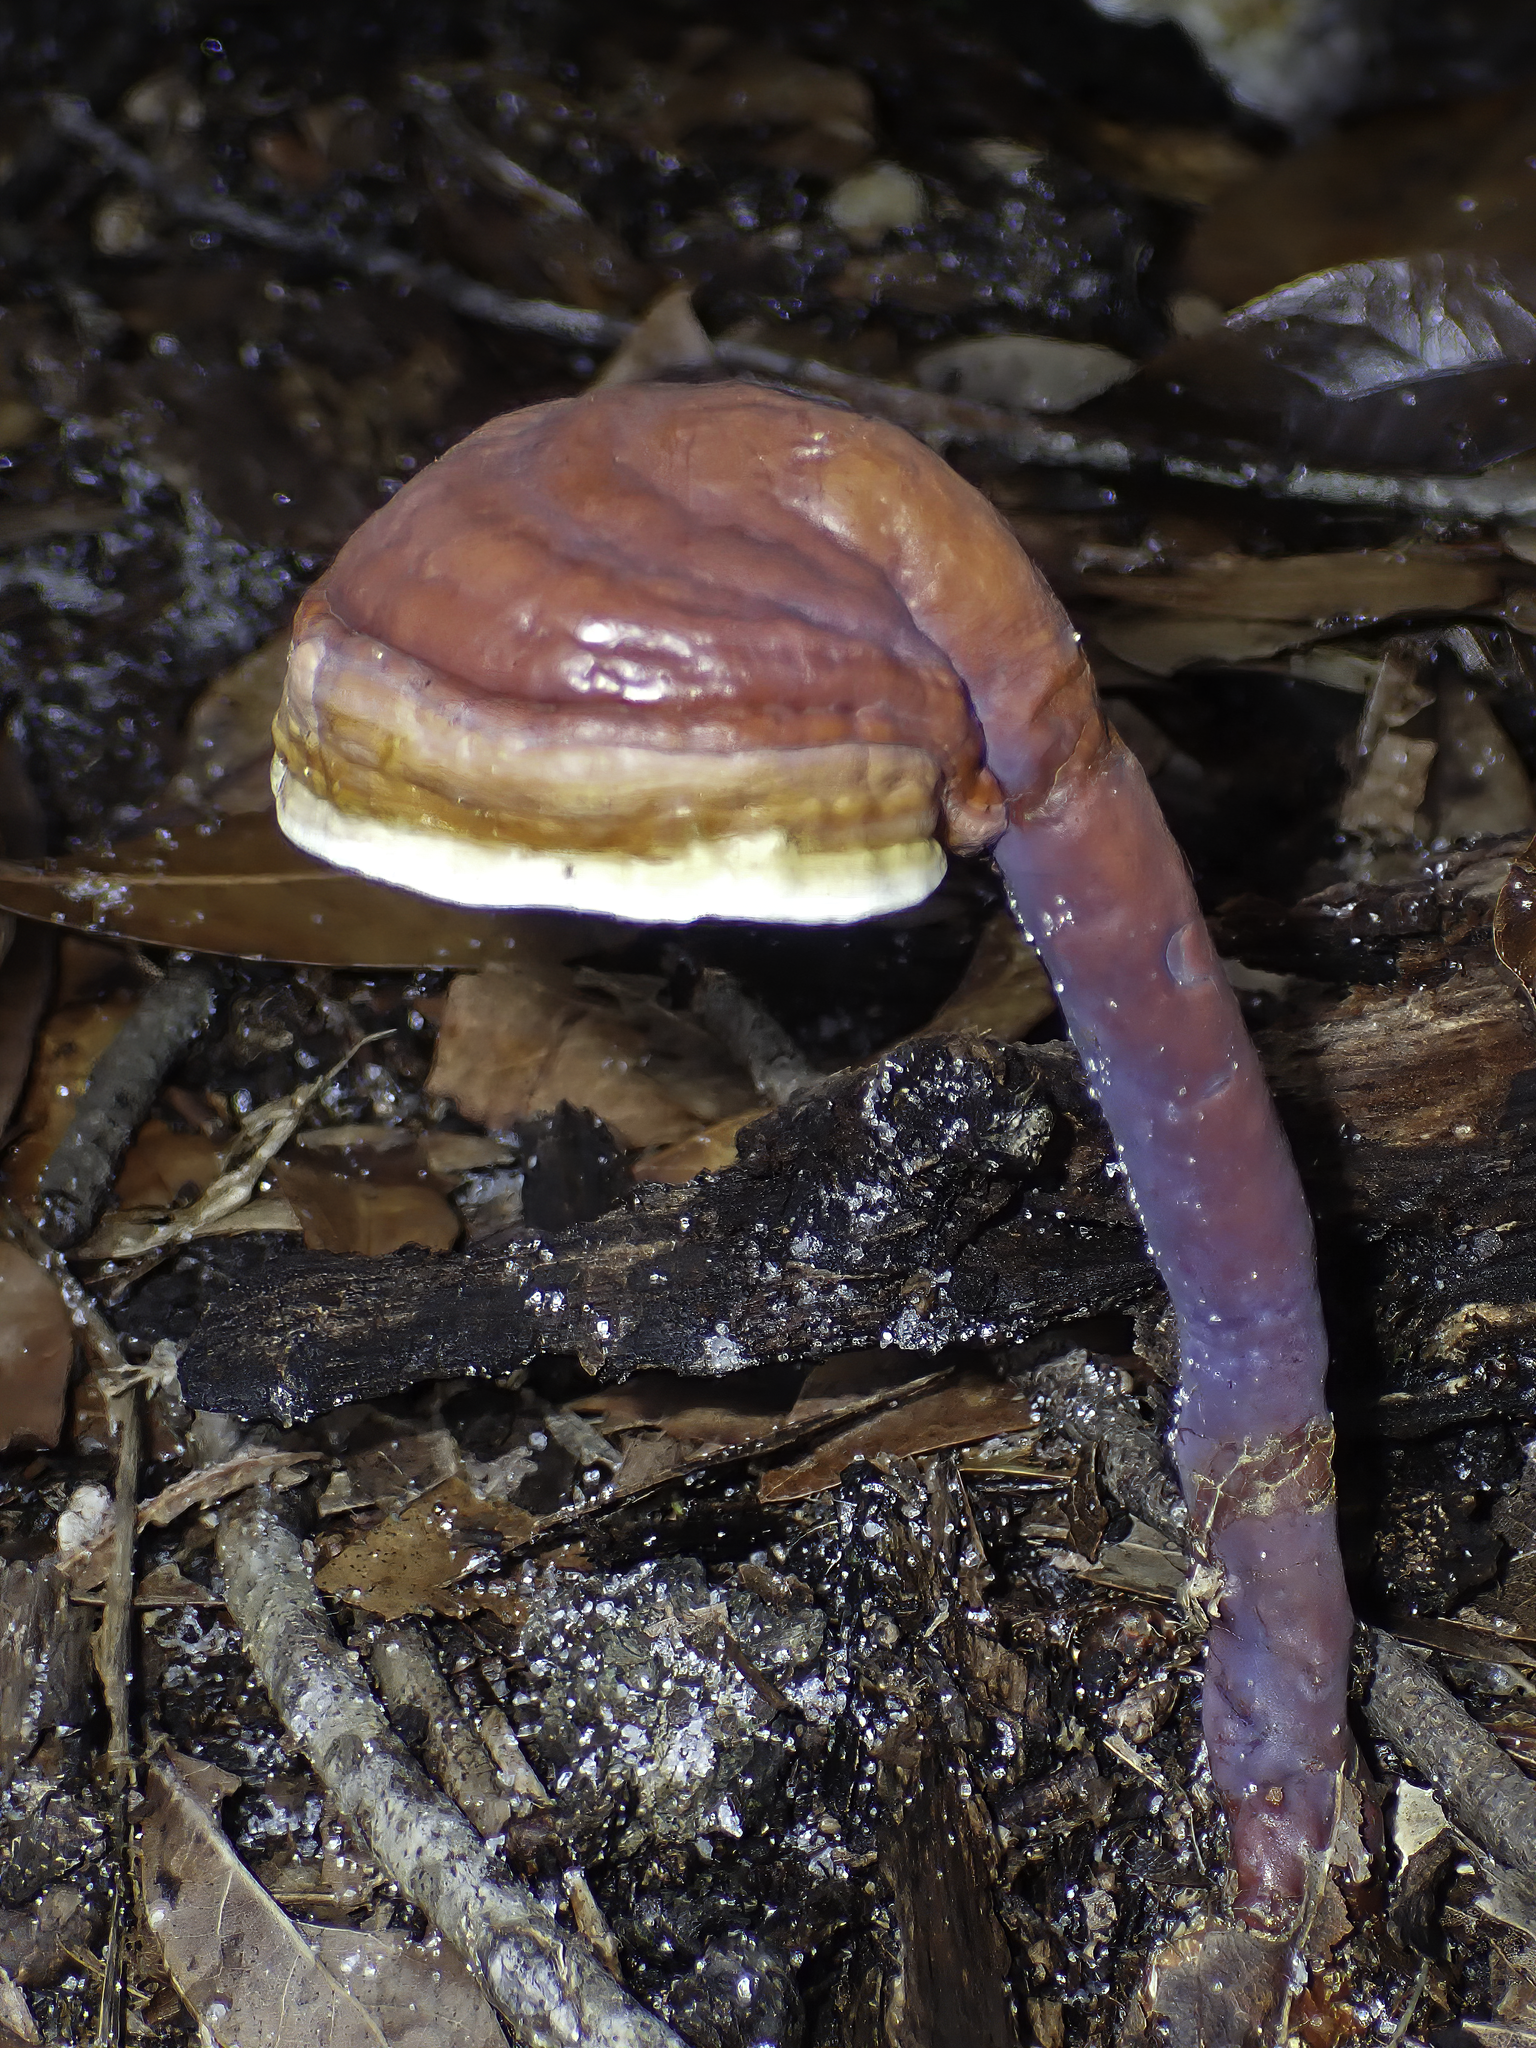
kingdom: Fungi
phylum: Basidiomycota
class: Agaricomycetes
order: Polyporales
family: Polyporaceae
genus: Ganoderma
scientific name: Ganoderma curtisii
